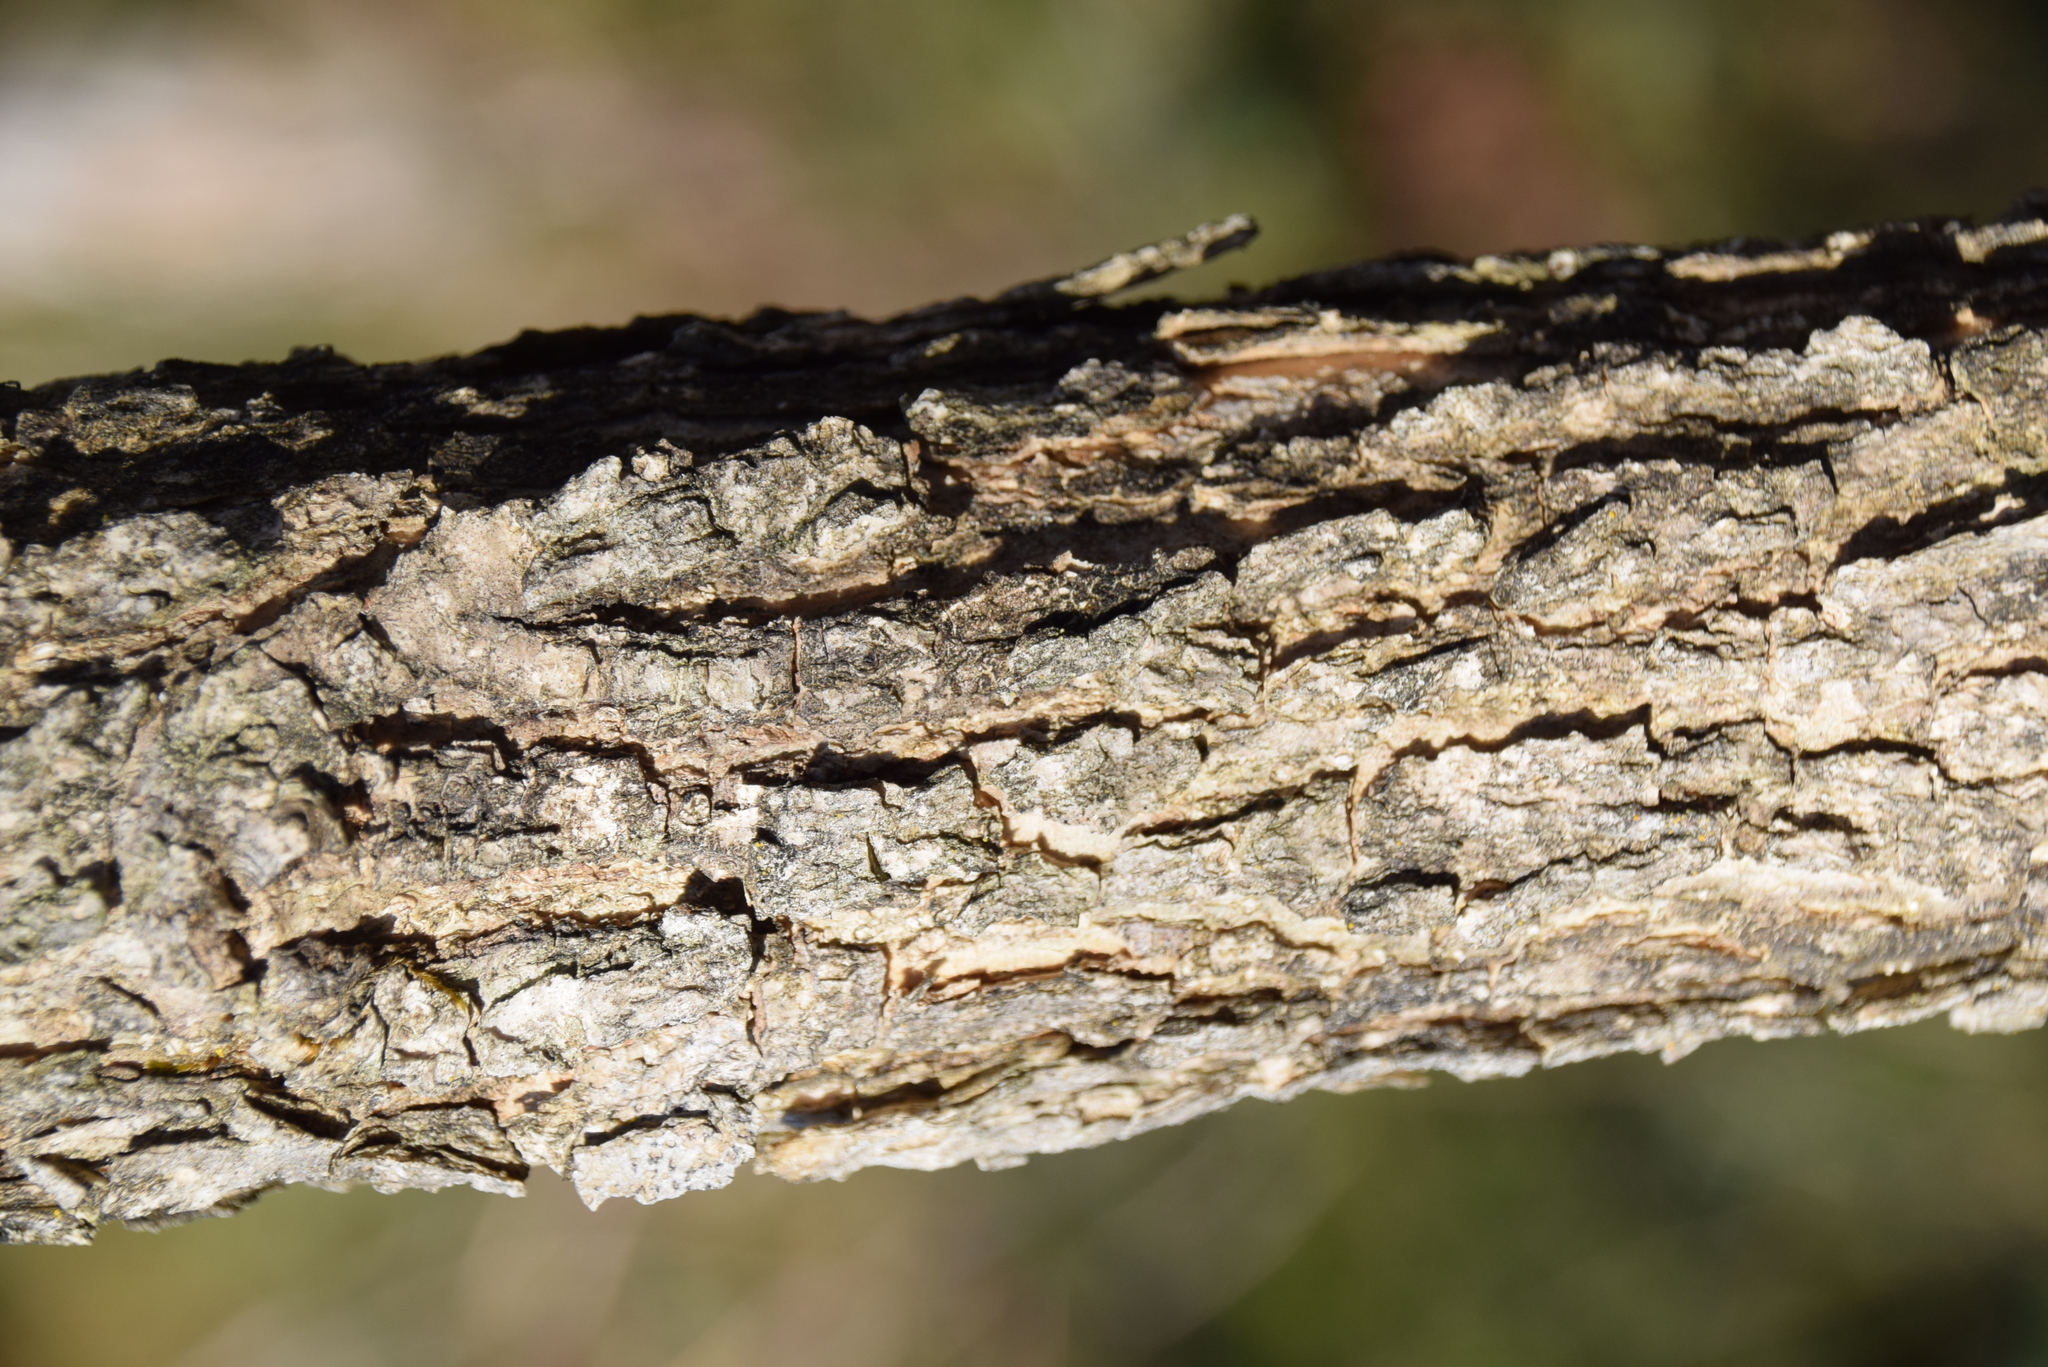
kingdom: Plantae
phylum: Tracheophyta
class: Magnoliopsida
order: Lamiales
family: Oleaceae
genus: Fraxinus
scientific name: Fraxinus nigra
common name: Black ash
